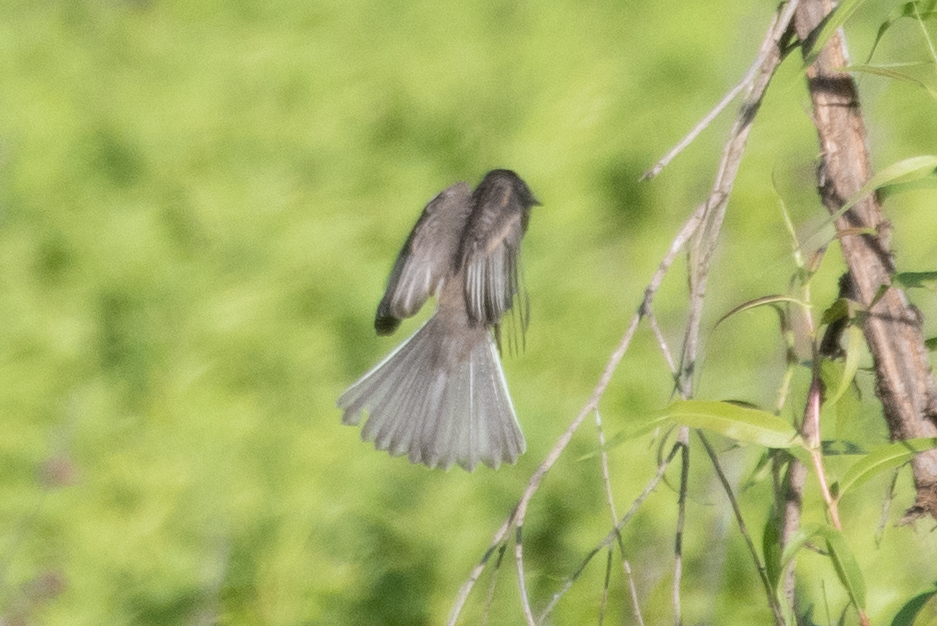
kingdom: Animalia
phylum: Chordata
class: Aves
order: Passeriformes
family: Tyrannidae
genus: Sayornis
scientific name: Sayornis nigricans
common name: Black phoebe
